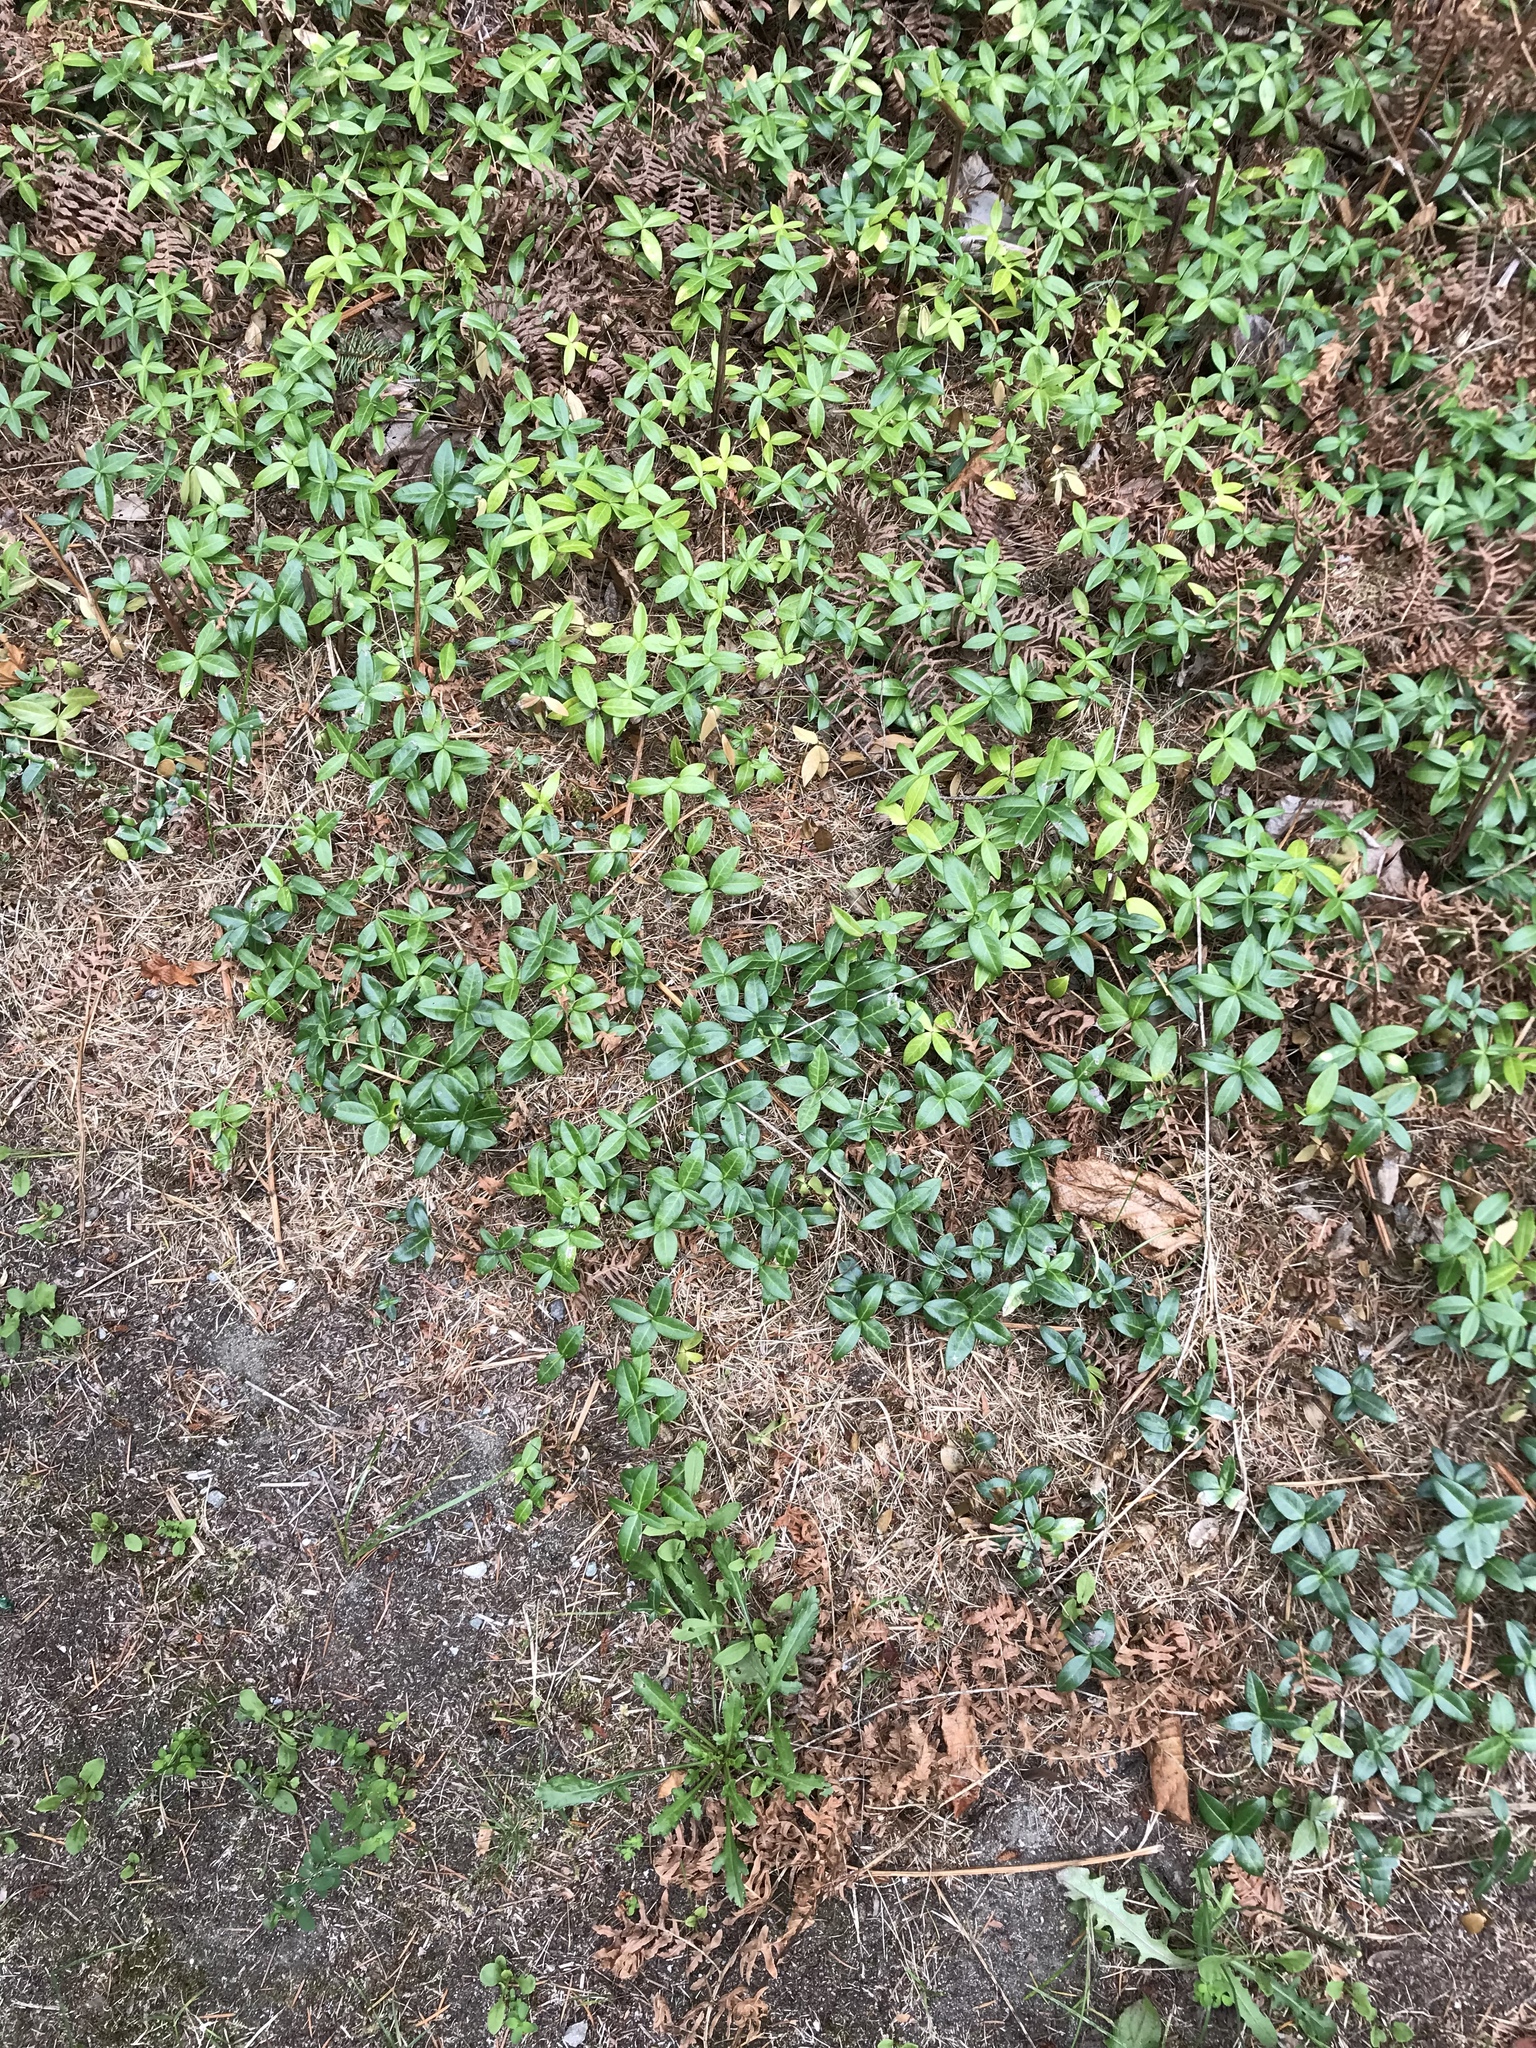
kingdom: Plantae
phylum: Tracheophyta
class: Magnoliopsida
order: Gentianales
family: Apocynaceae
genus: Vinca
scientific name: Vinca minor
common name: Lesser periwinkle
